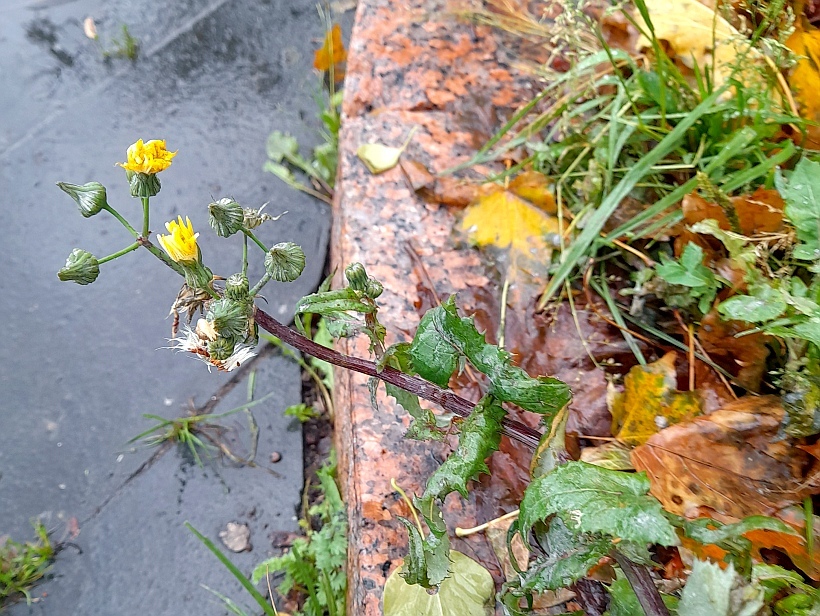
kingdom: Plantae
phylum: Tracheophyta
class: Magnoliopsida
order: Asterales
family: Asteraceae
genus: Sonchus
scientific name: Sonchus oleraceus
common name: Common sowthistle
